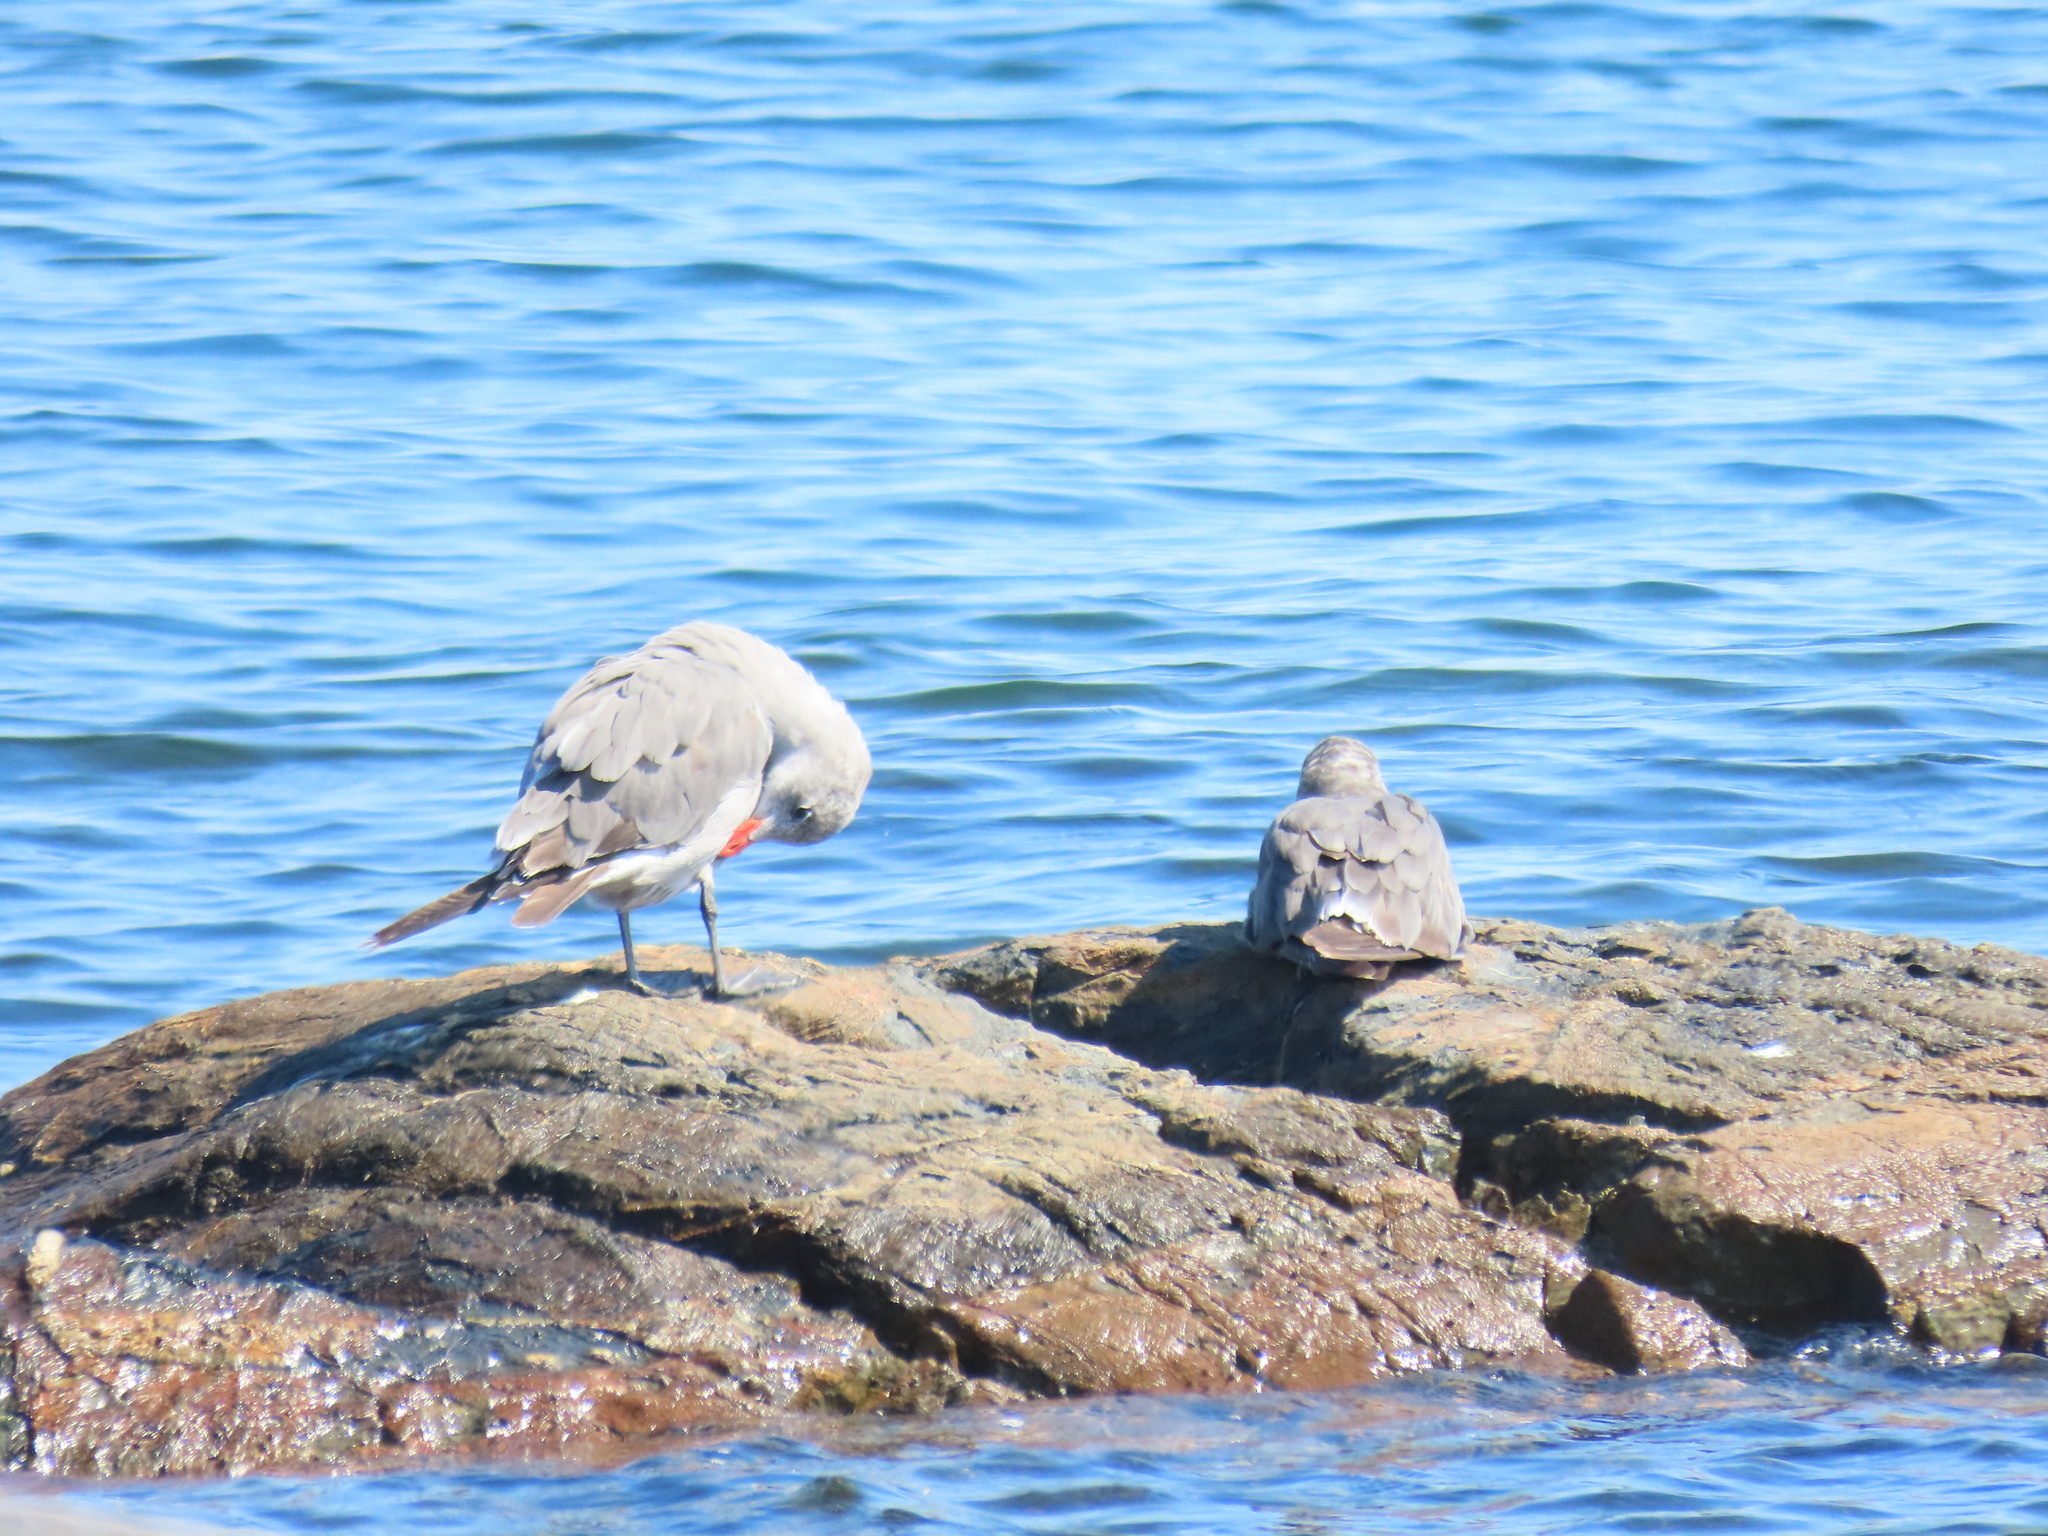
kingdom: Animalia
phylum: Chordata
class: Aves
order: Charadriiformes
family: Laridae
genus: Larus
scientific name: Larus heermanni
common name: Heermann's gull
